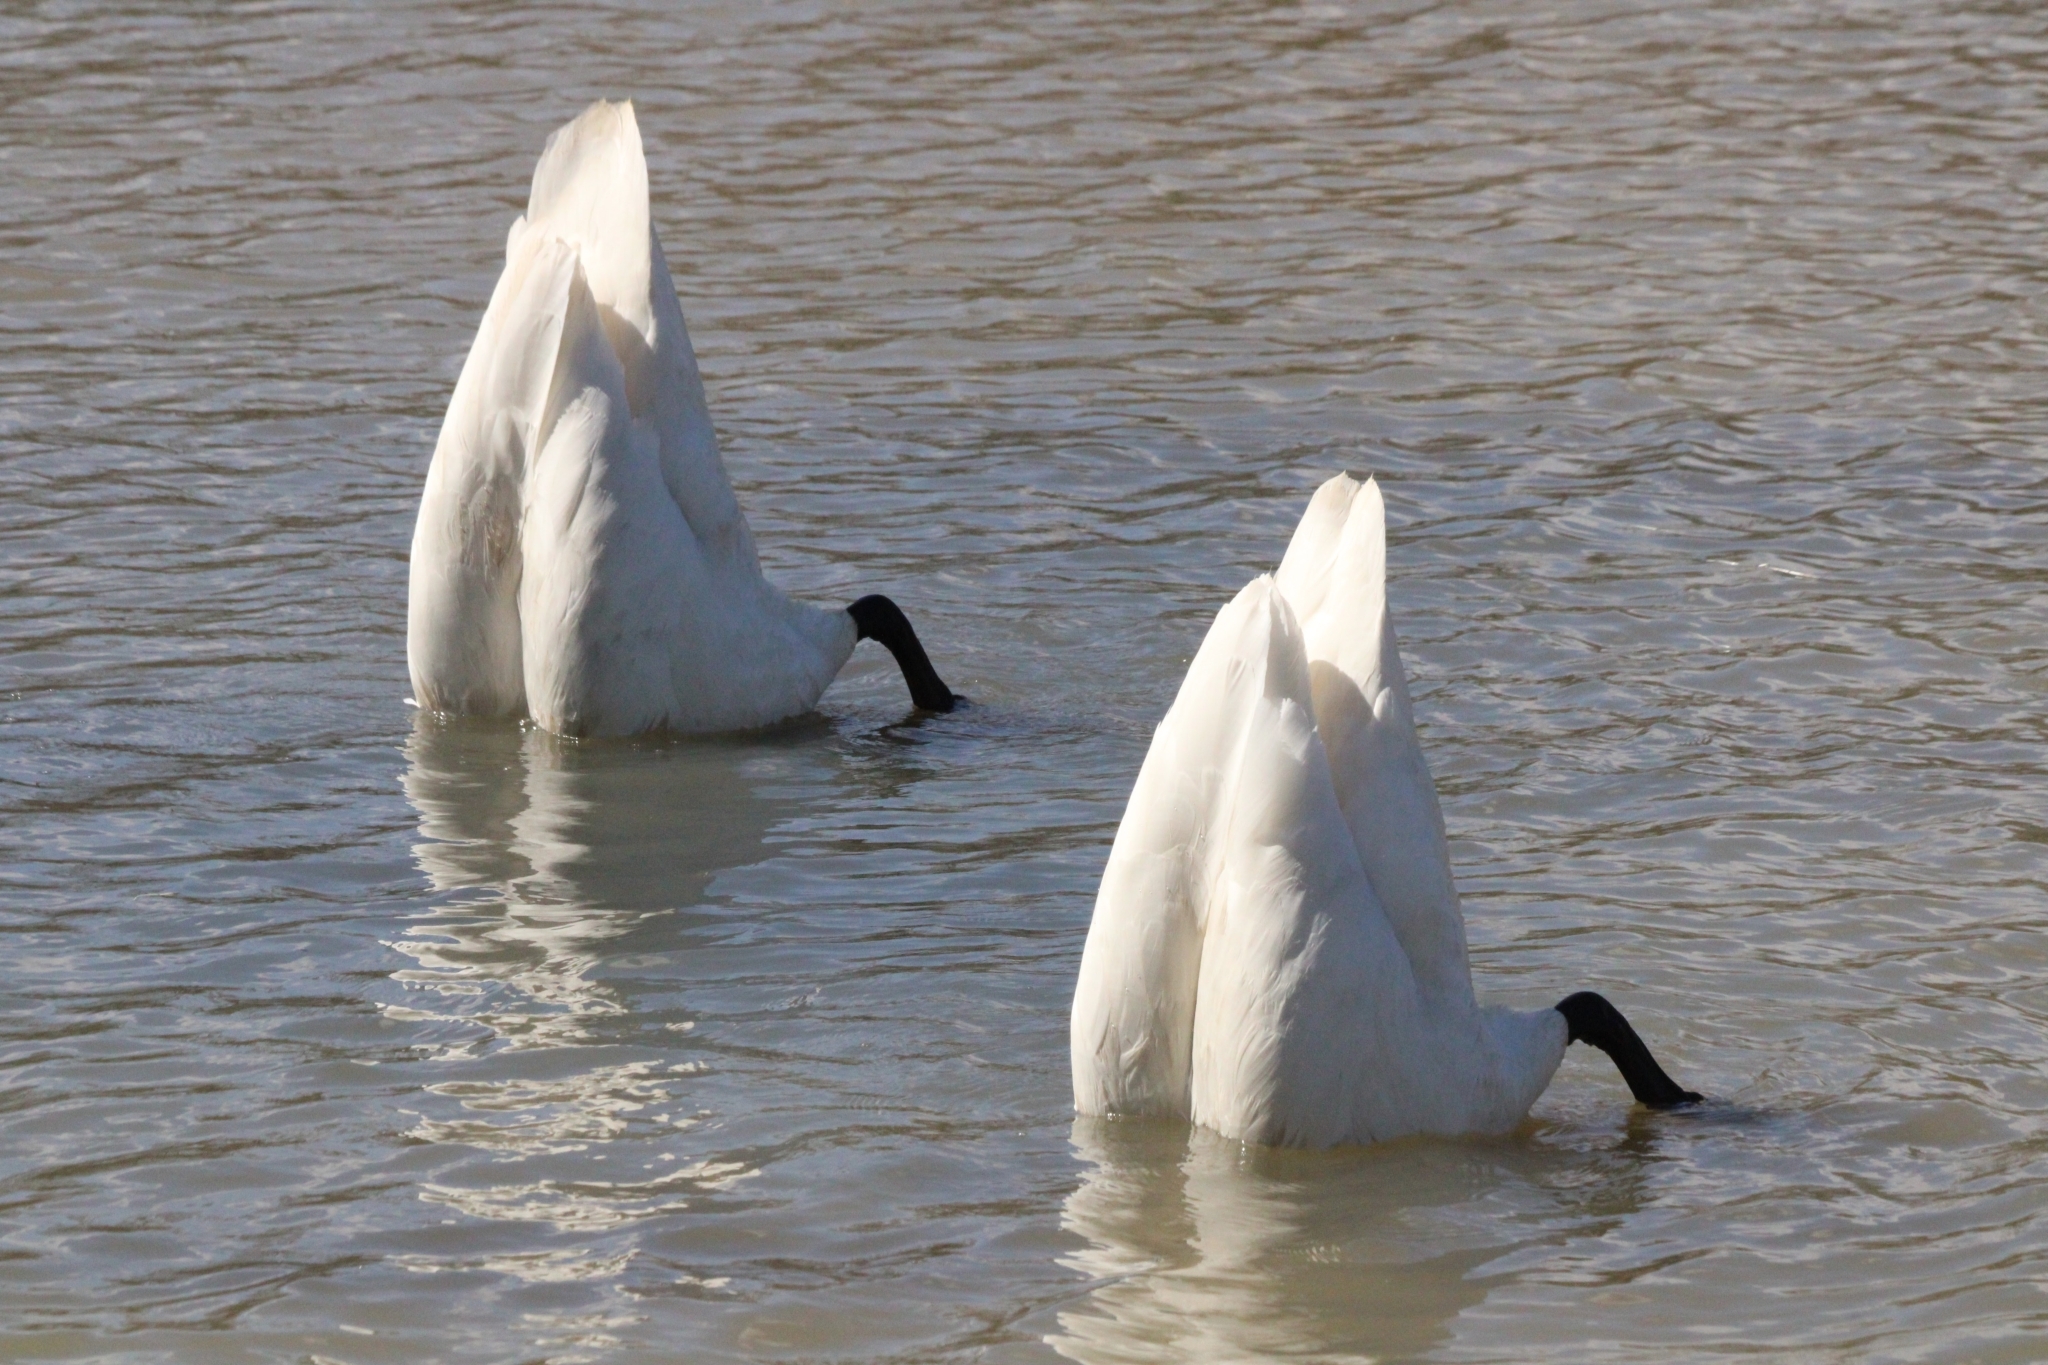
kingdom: Animalia
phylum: Chordata
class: Aves
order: Anseriformes
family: Anatidae
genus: Cygnus
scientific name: Cygnus buccinator
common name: Trumpeter swan
